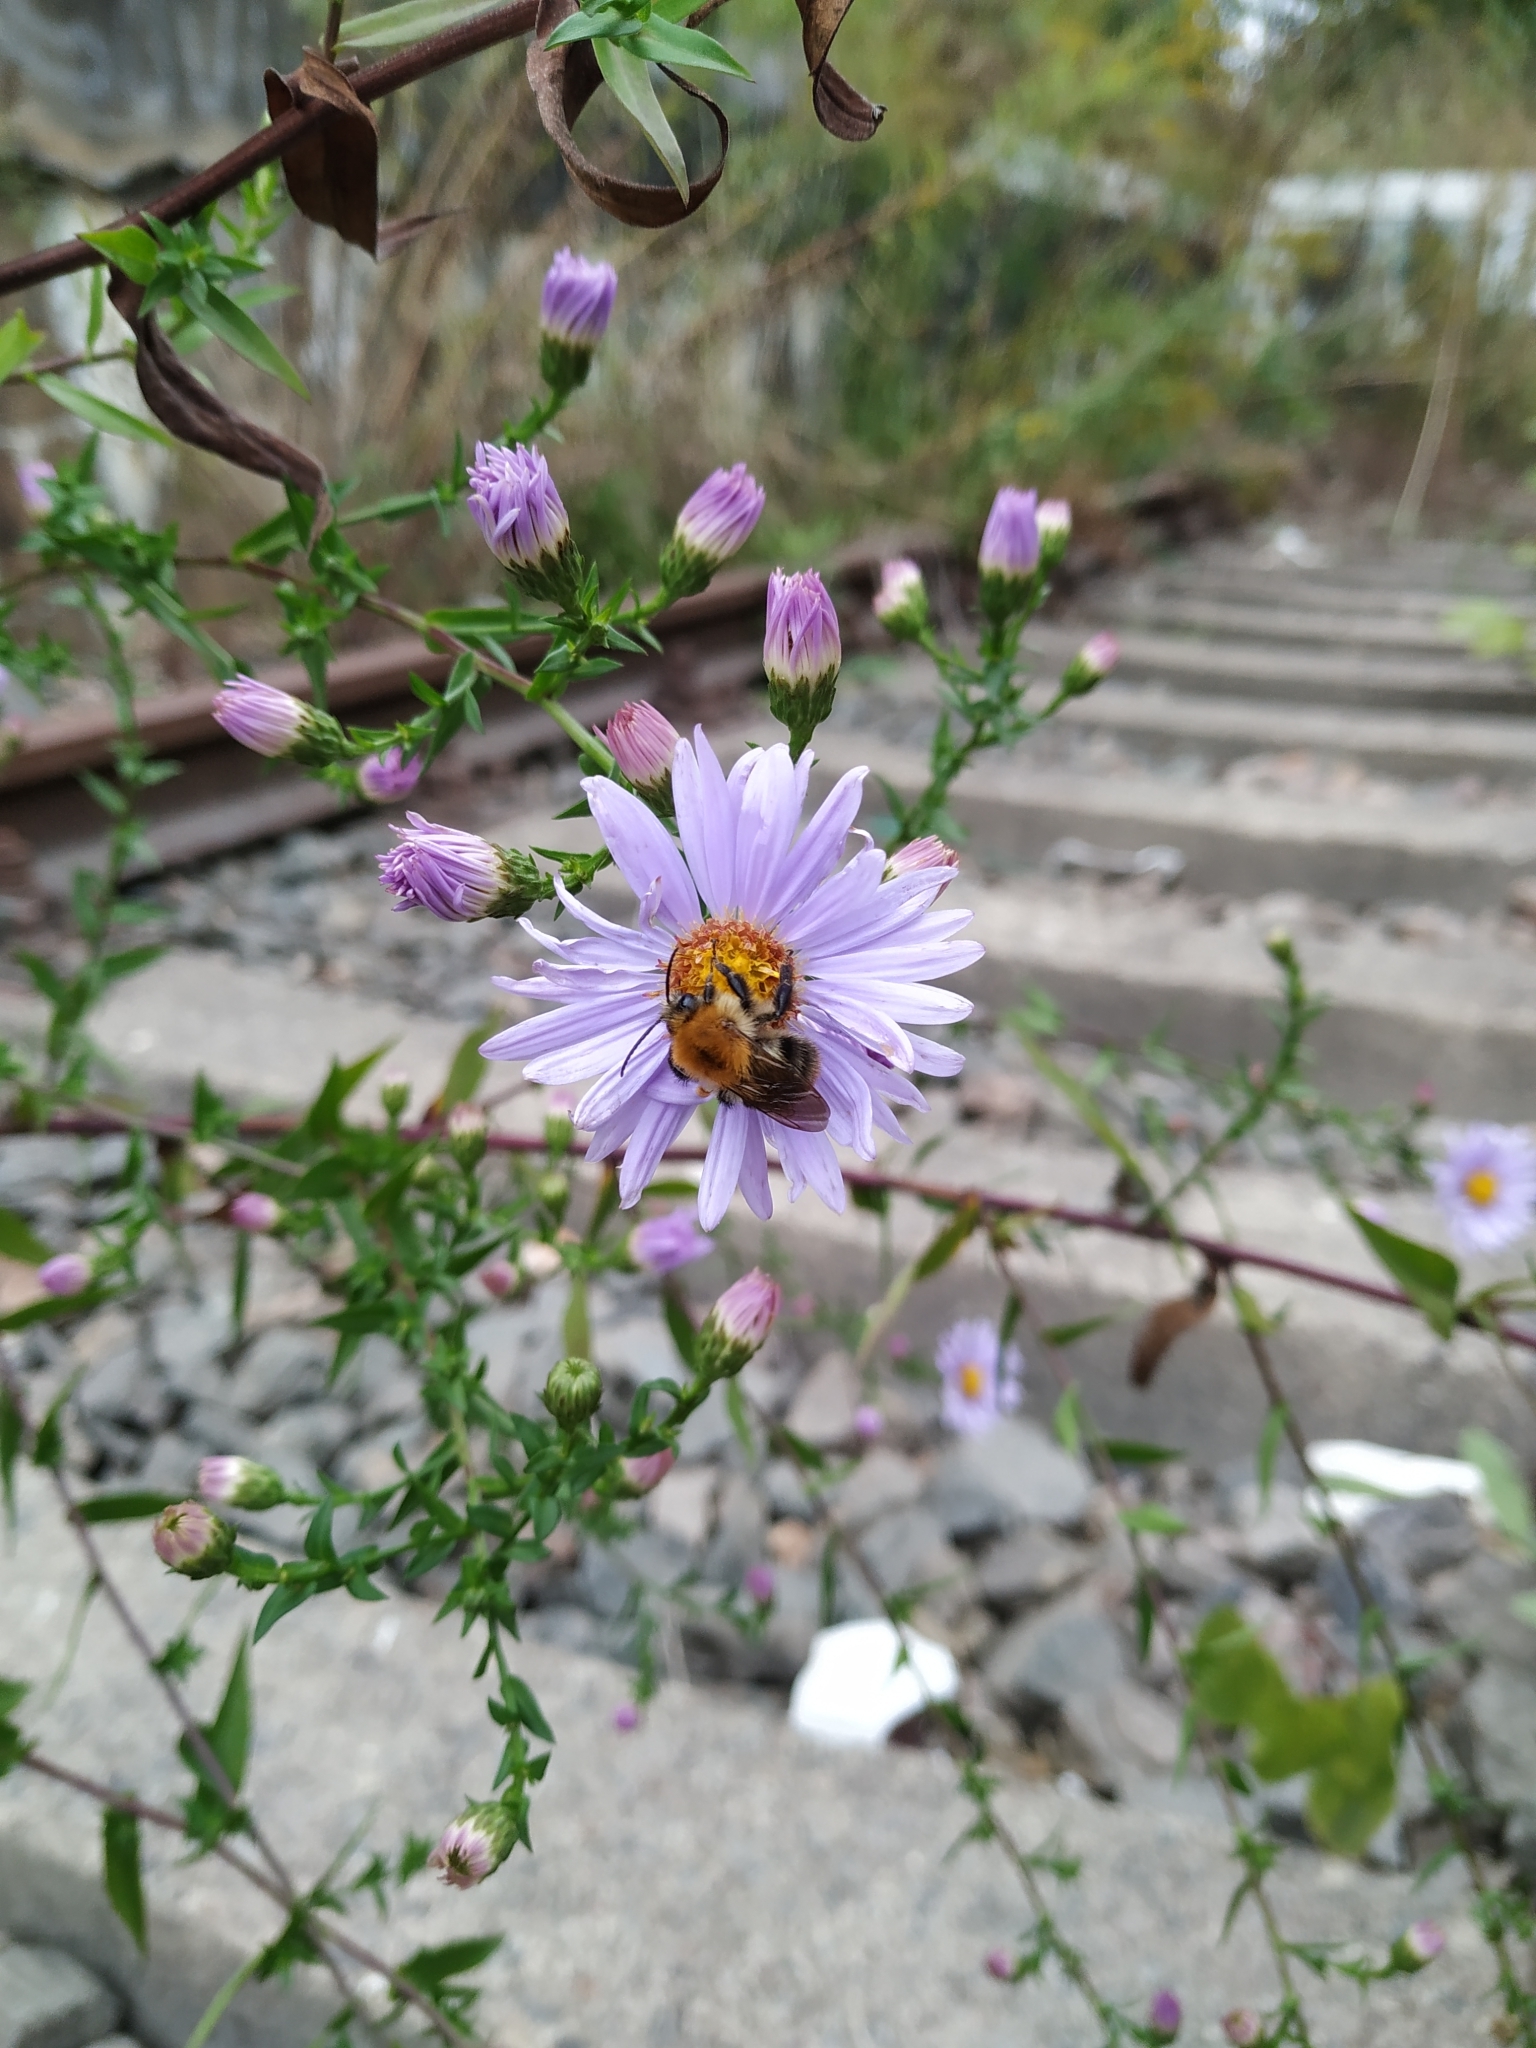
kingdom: Plantae
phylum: Tracheophyta
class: Magnoliopsida
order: Asterales
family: Asteraceae
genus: Symphyotrichum
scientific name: Symphyotrichum novi-belgii
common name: Michaelmas daisy
